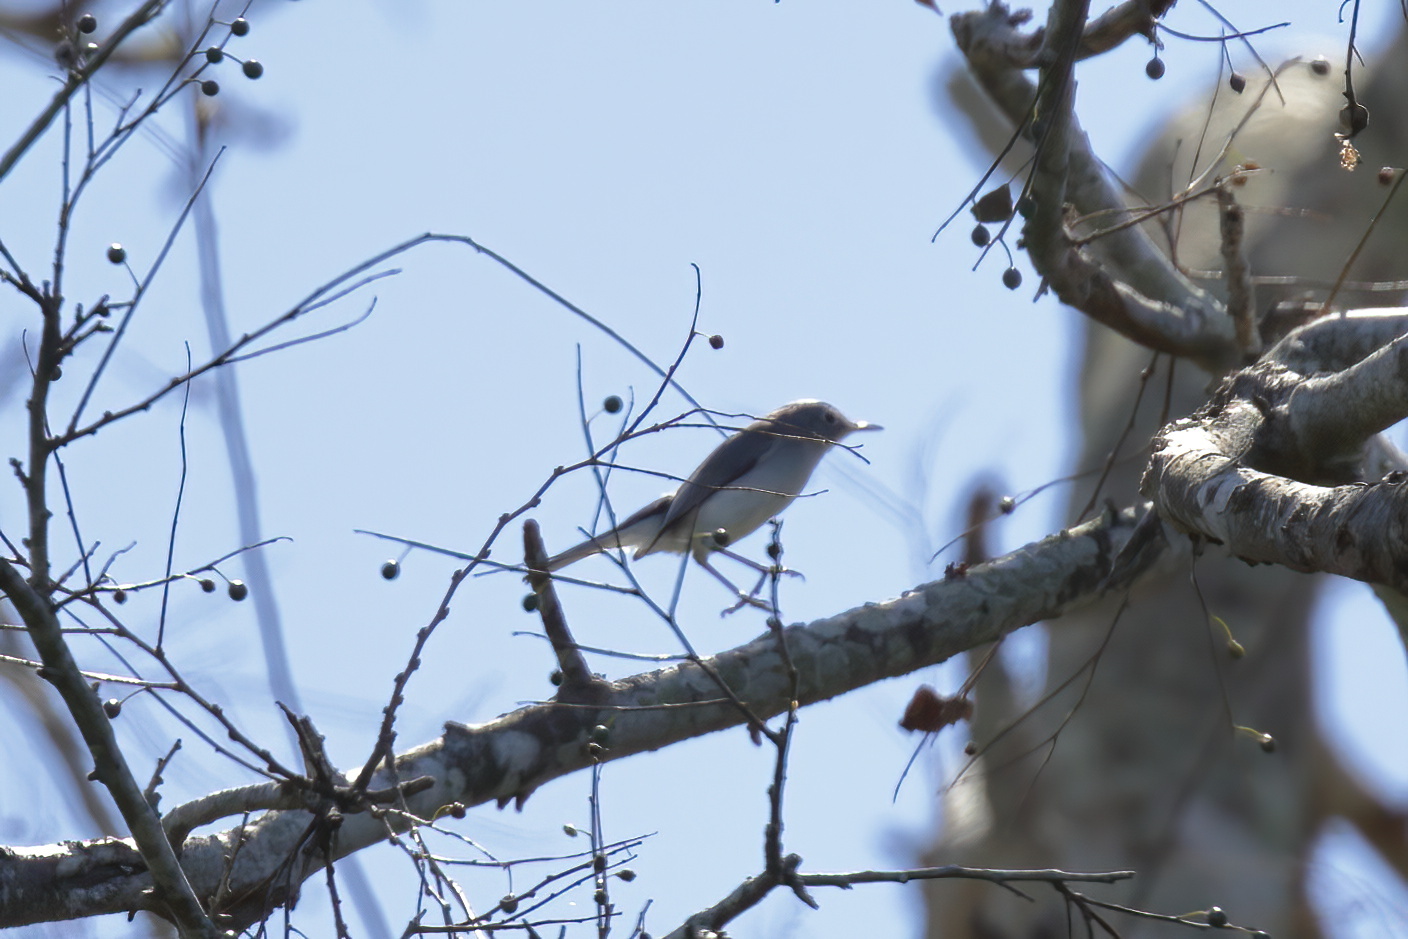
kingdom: Animalia
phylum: Chordata
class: Aves
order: Passeriformes
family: Polioptilidae
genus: Polioptila
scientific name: Polioptila caerulea
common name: Blue-gray gnatcatcher
